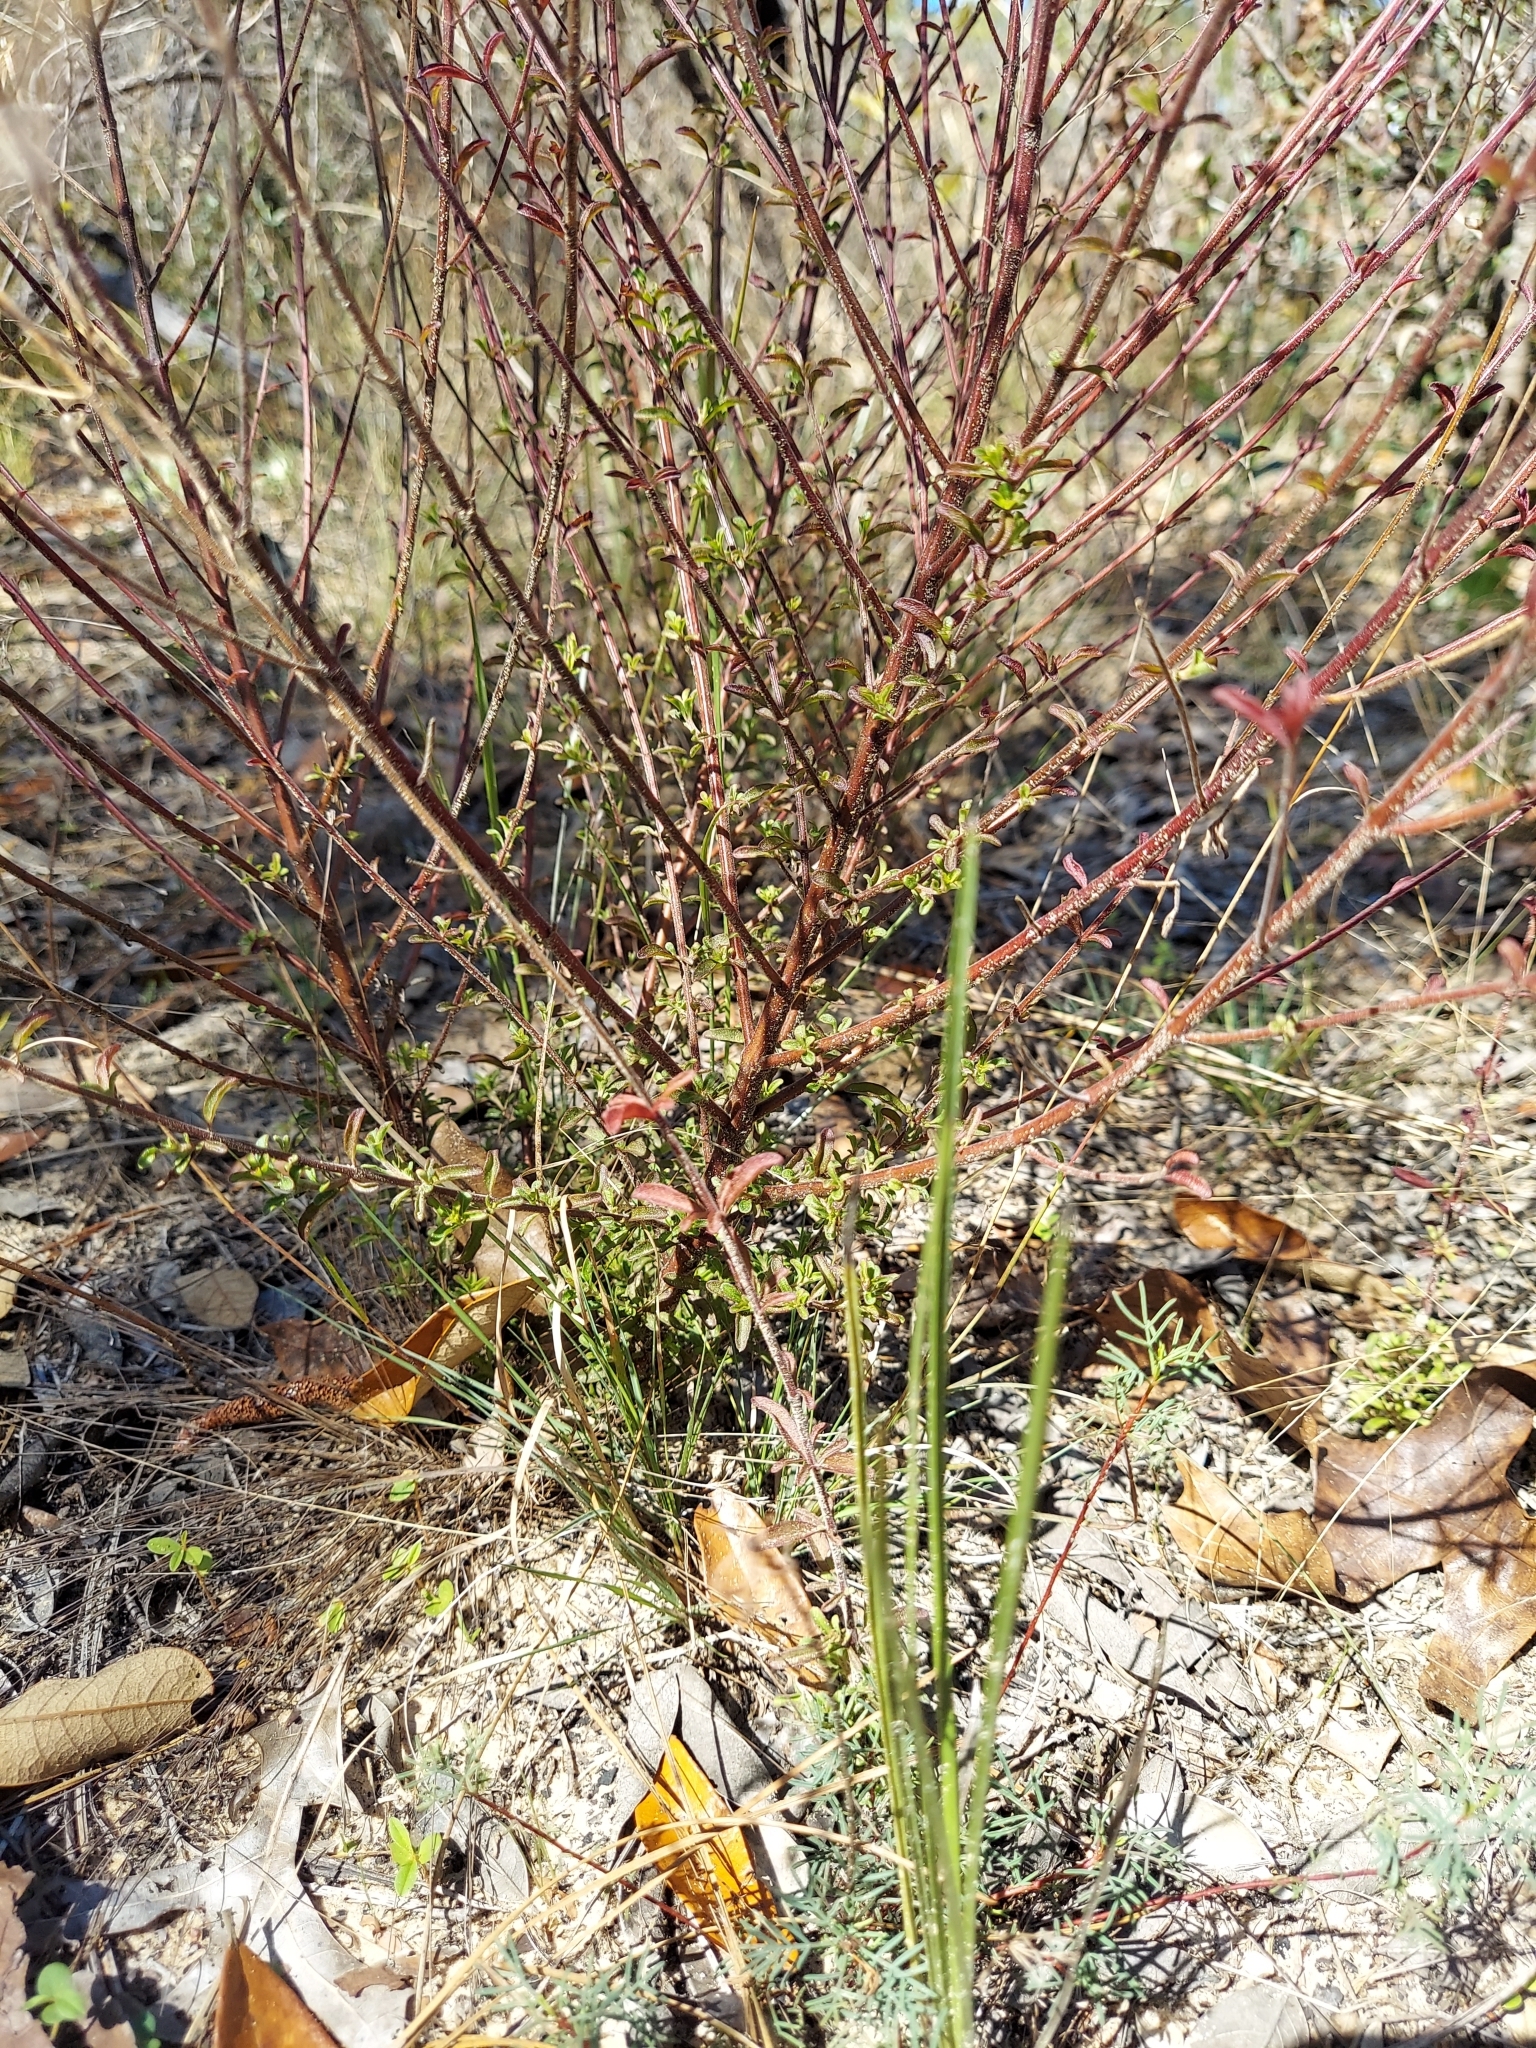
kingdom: Plantae
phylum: Tracheophyta
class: Magnoliopsida
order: Lamiales
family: Lamiaceae
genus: Trichostema
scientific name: Trichostema microphyllum
